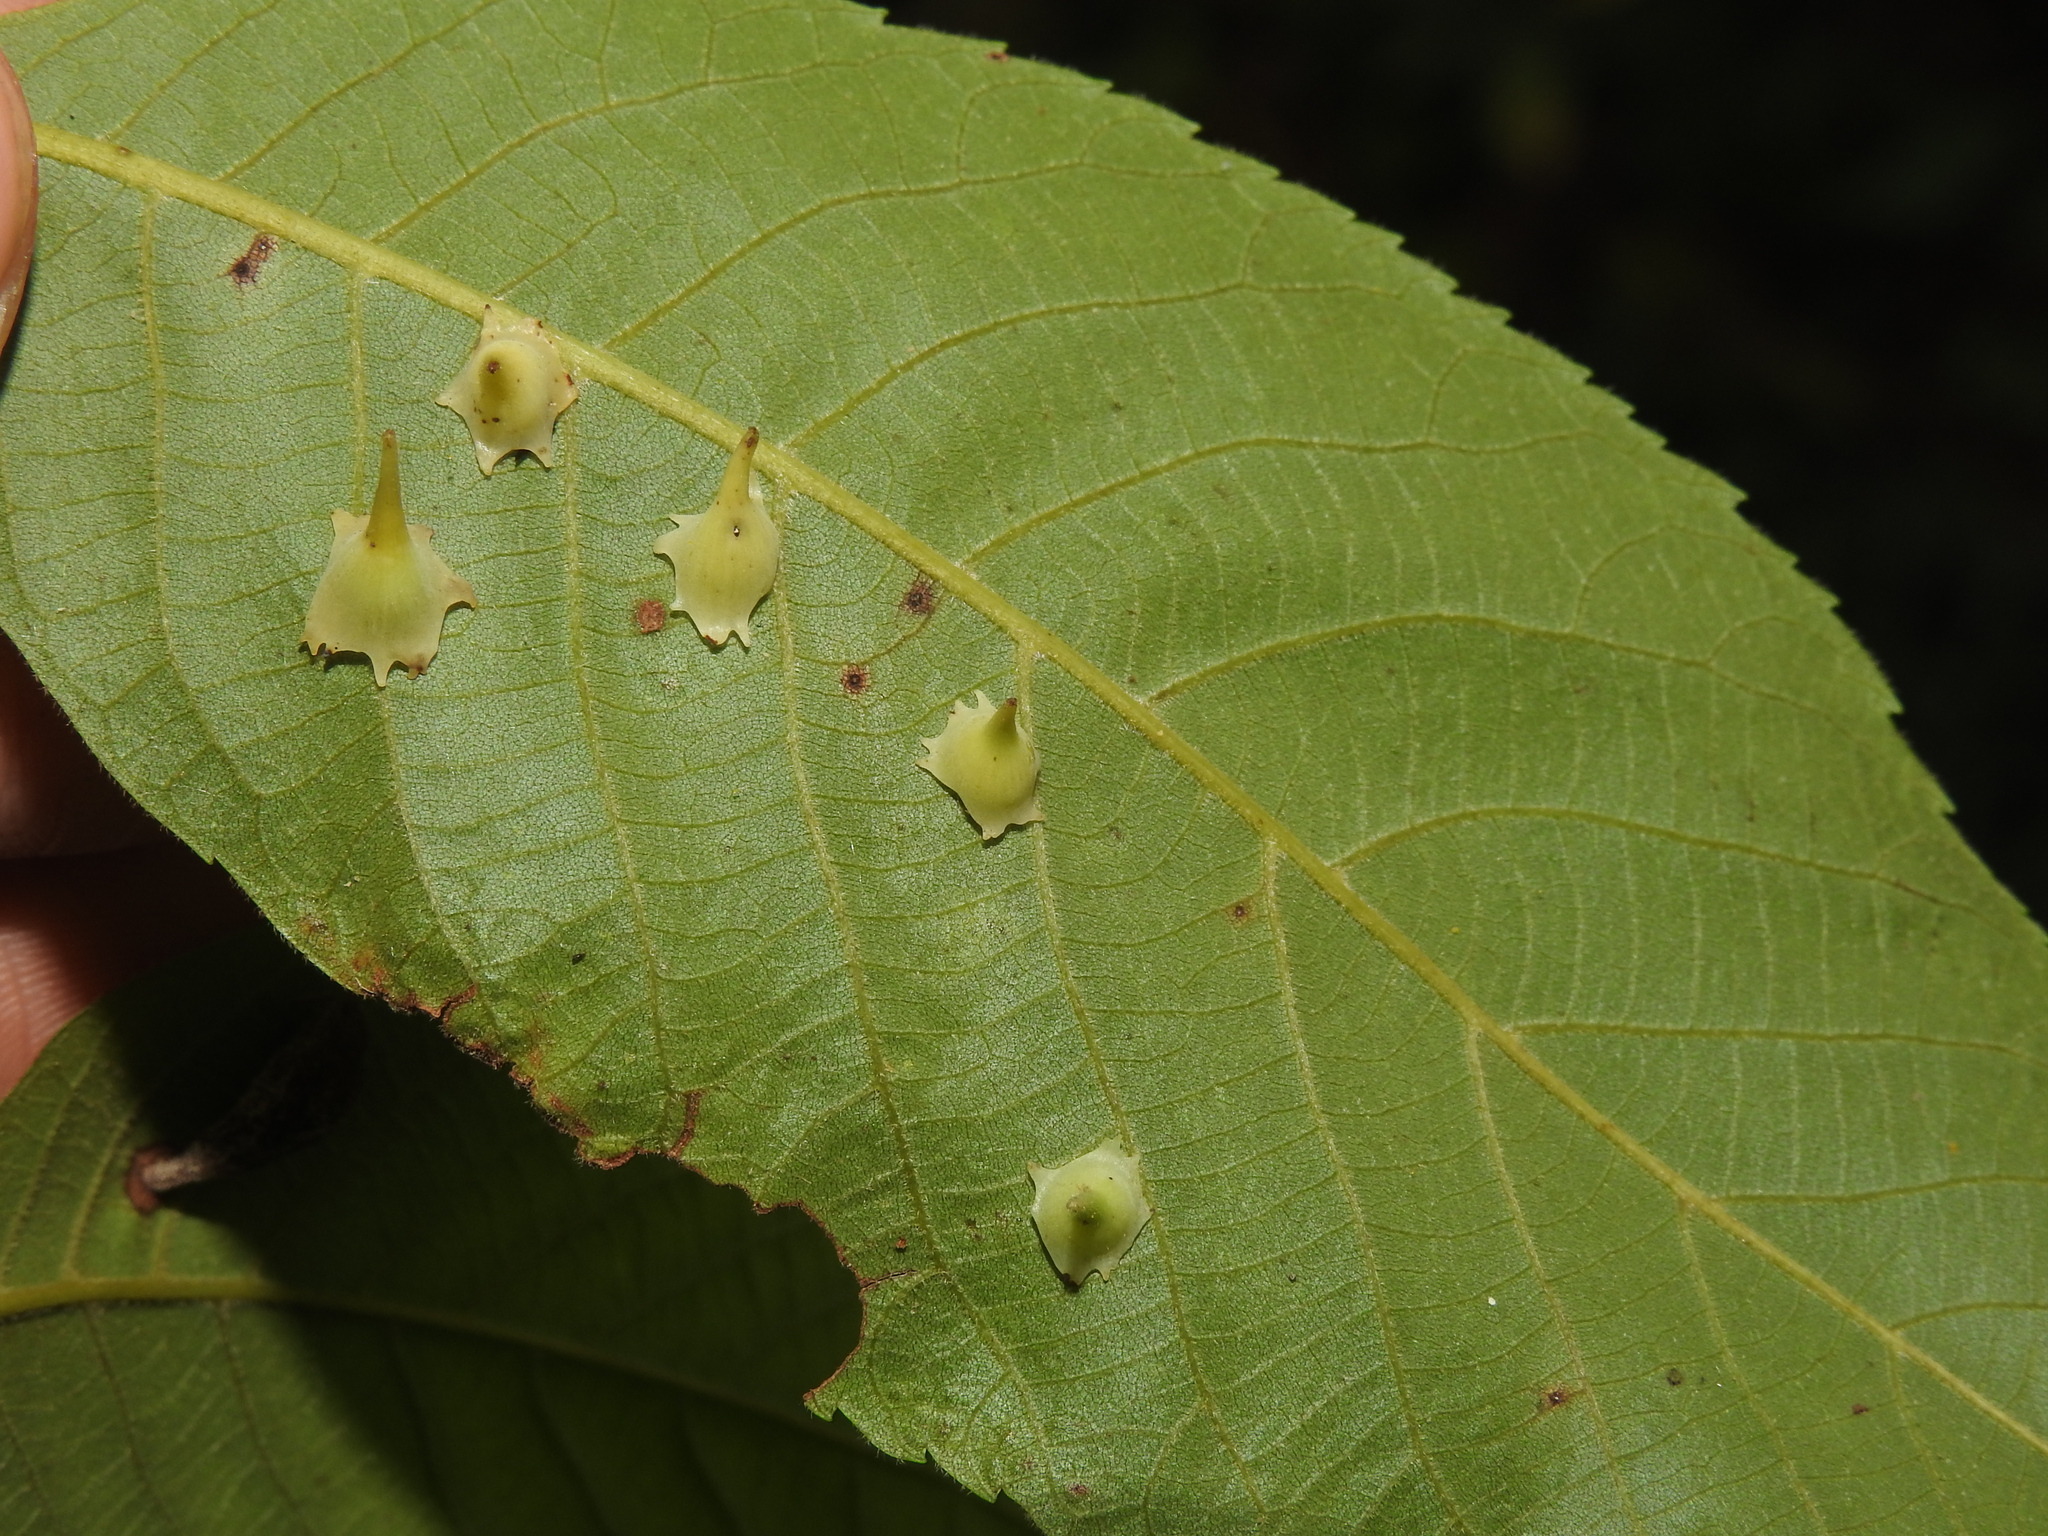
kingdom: Animalia
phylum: Arthropoda
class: Insecta
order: Diptera
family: Cecidomyiidae
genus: Caryomyia
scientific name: Caryomyia stellata
